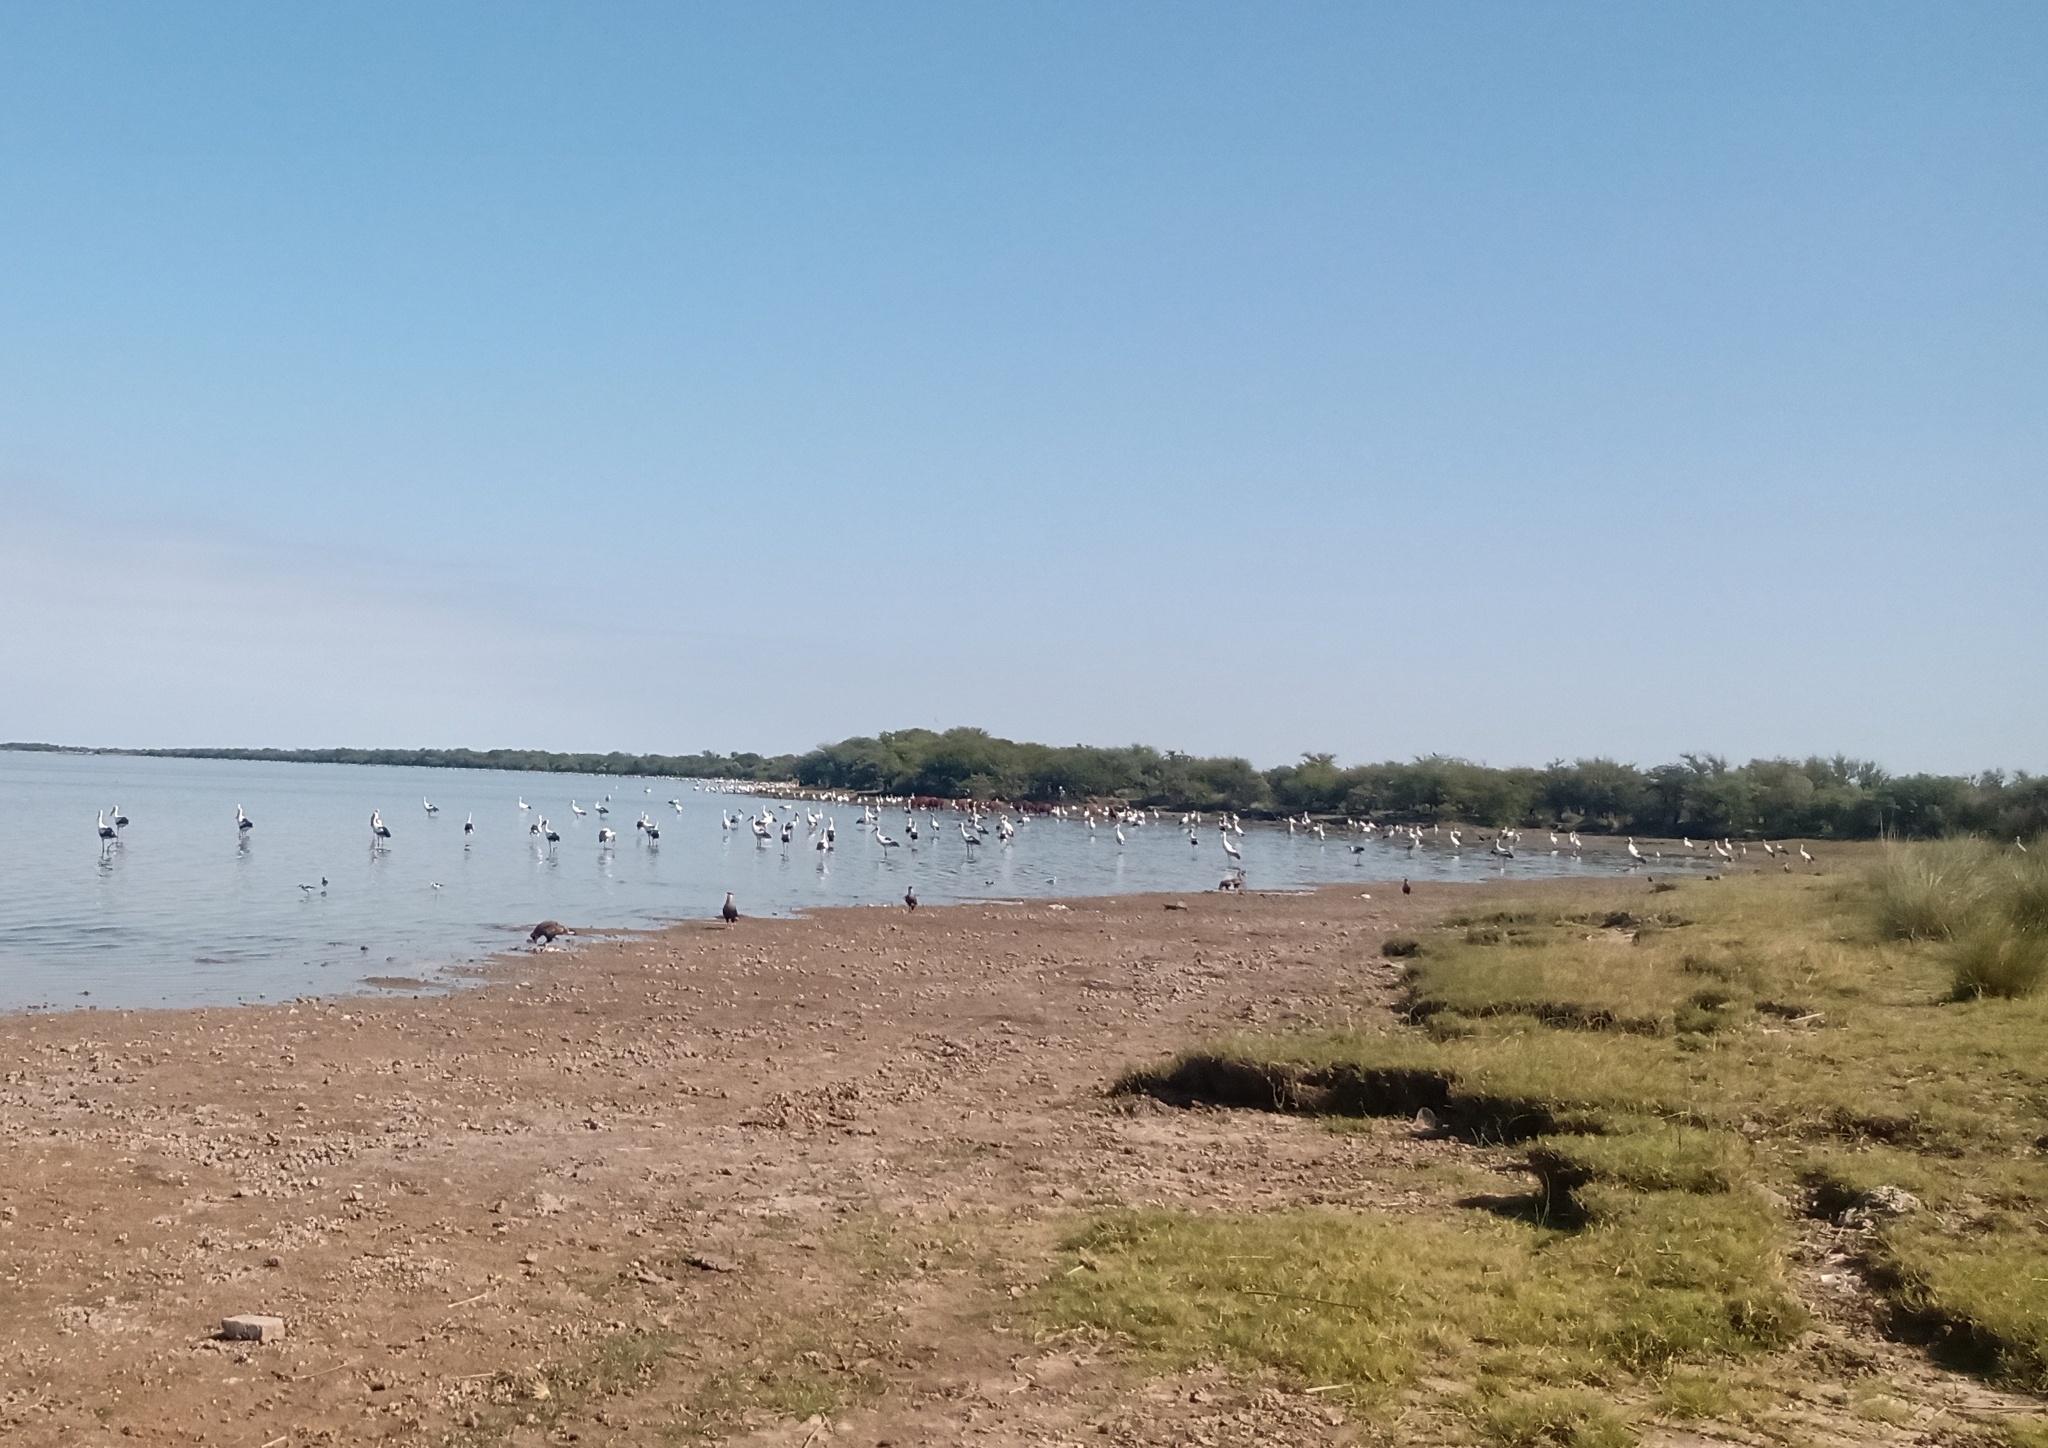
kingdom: Animalia
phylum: Chordata
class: Aves
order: Ciconiiformes
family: Ciconiidae
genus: Ciconia
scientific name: Ciconia maguari
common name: Maguari stork
